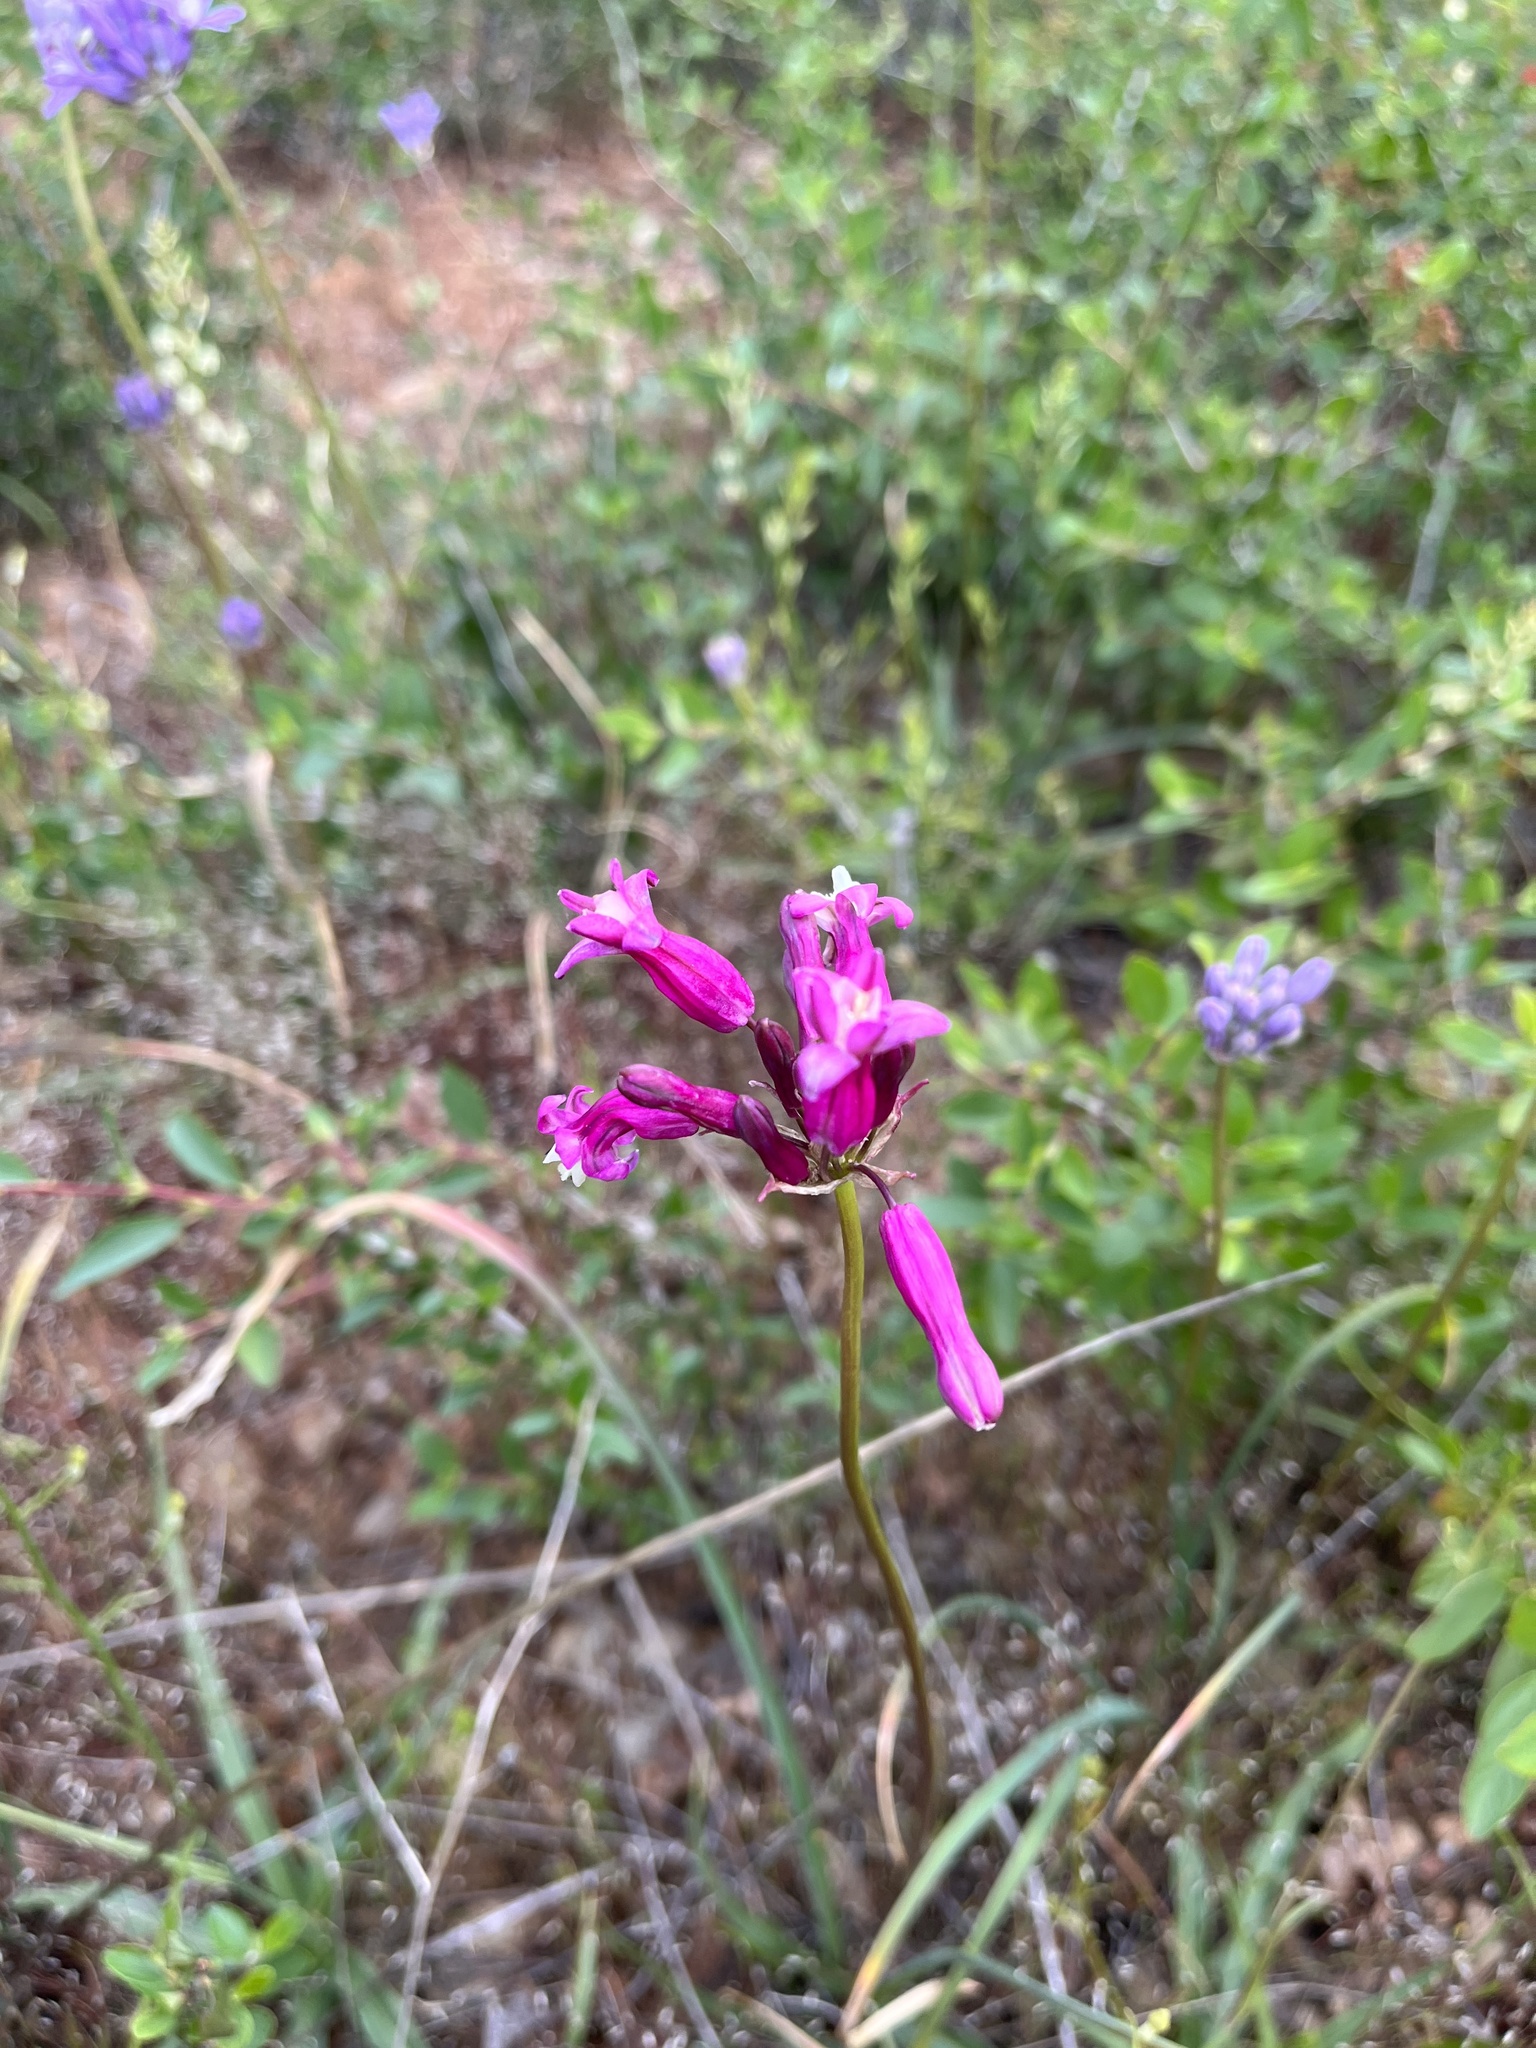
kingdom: Plantae
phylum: Tracheophyta
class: Liliopsida
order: Asparagales
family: Asparagaceae
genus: Dichelostemma
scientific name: Dichelostemma venustum
